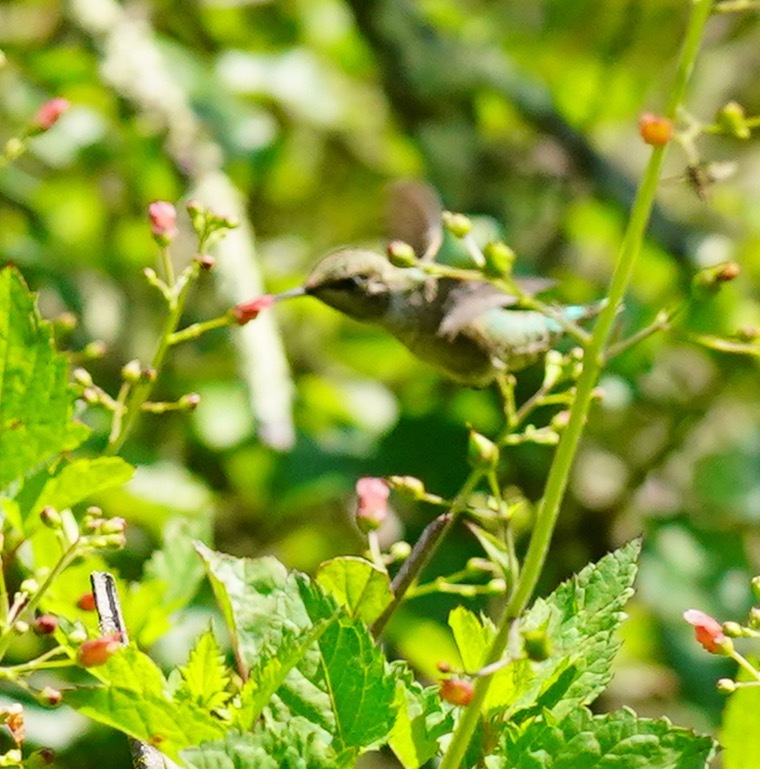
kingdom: Plantae
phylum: Tracheophyta
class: Magnoliopsida
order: Lamiales
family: Scrophulariaceae
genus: Scrophularia
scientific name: Scrophularia californica
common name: California figwort
